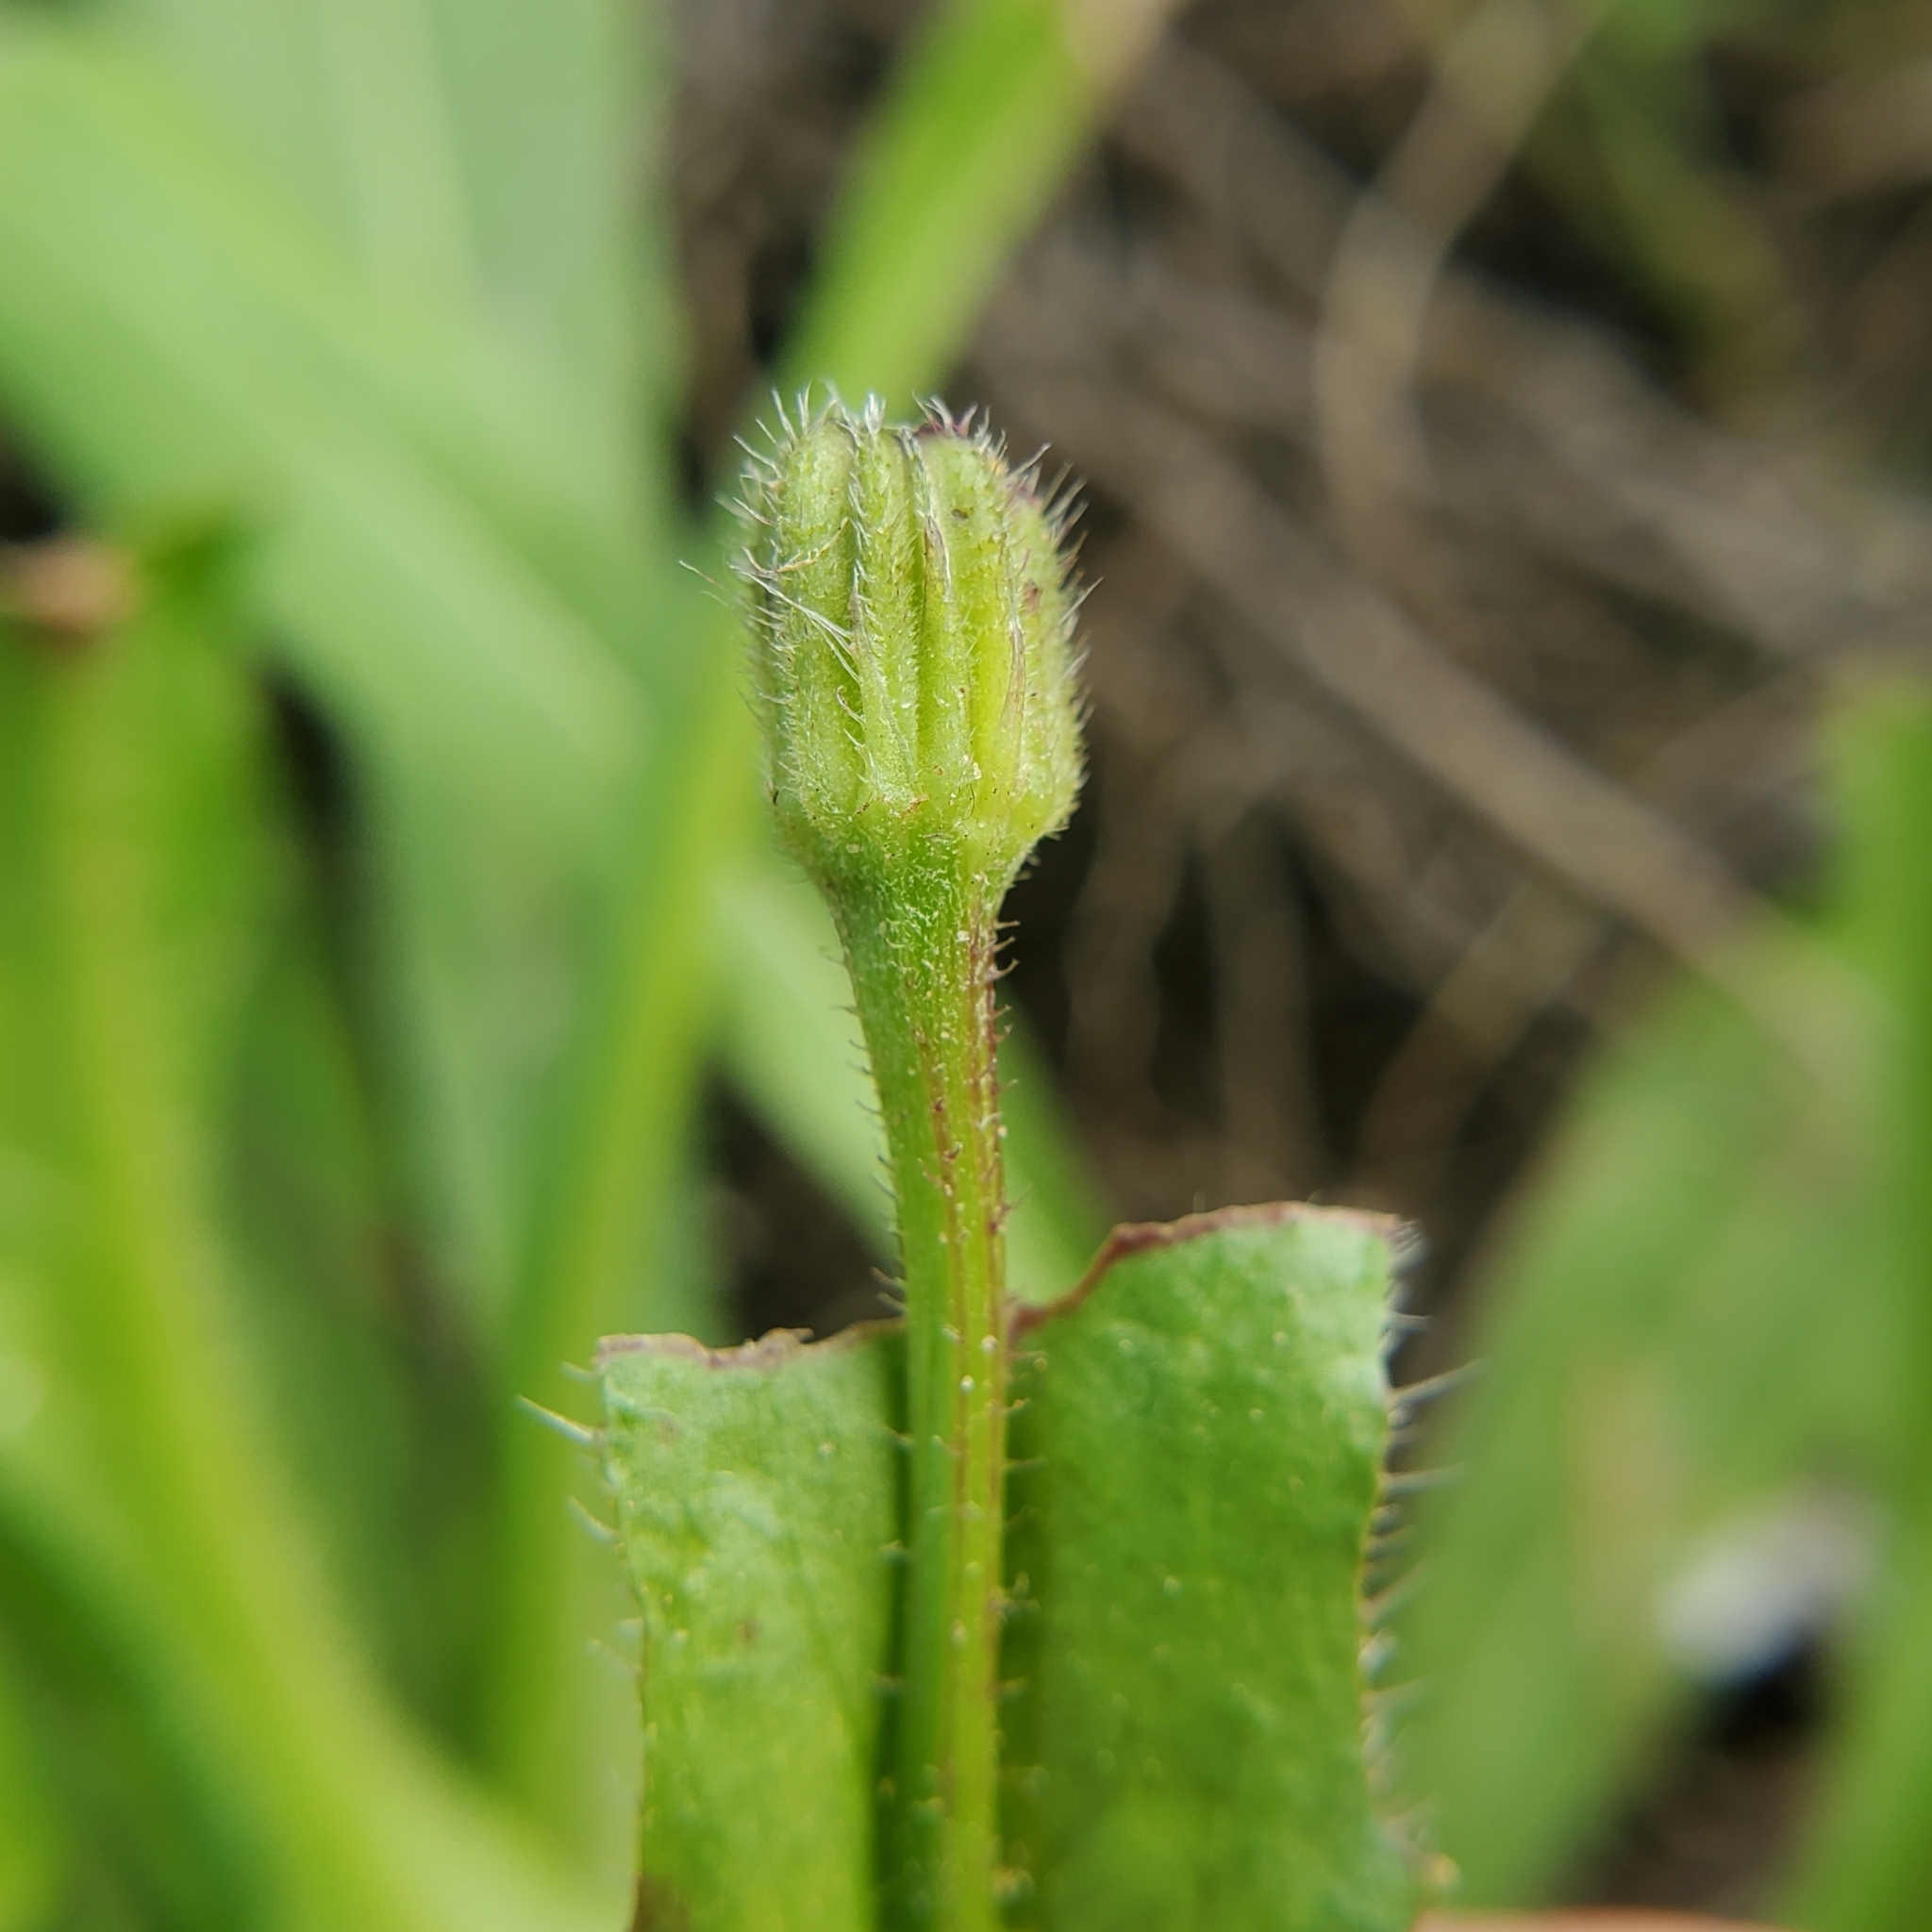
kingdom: Plantae
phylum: Tracheophyta
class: Magnoliopsida
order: Asterales
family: Asteraceae
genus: Hedypnois
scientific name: Hedypnois rhagadioloides
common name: Cretan weed
